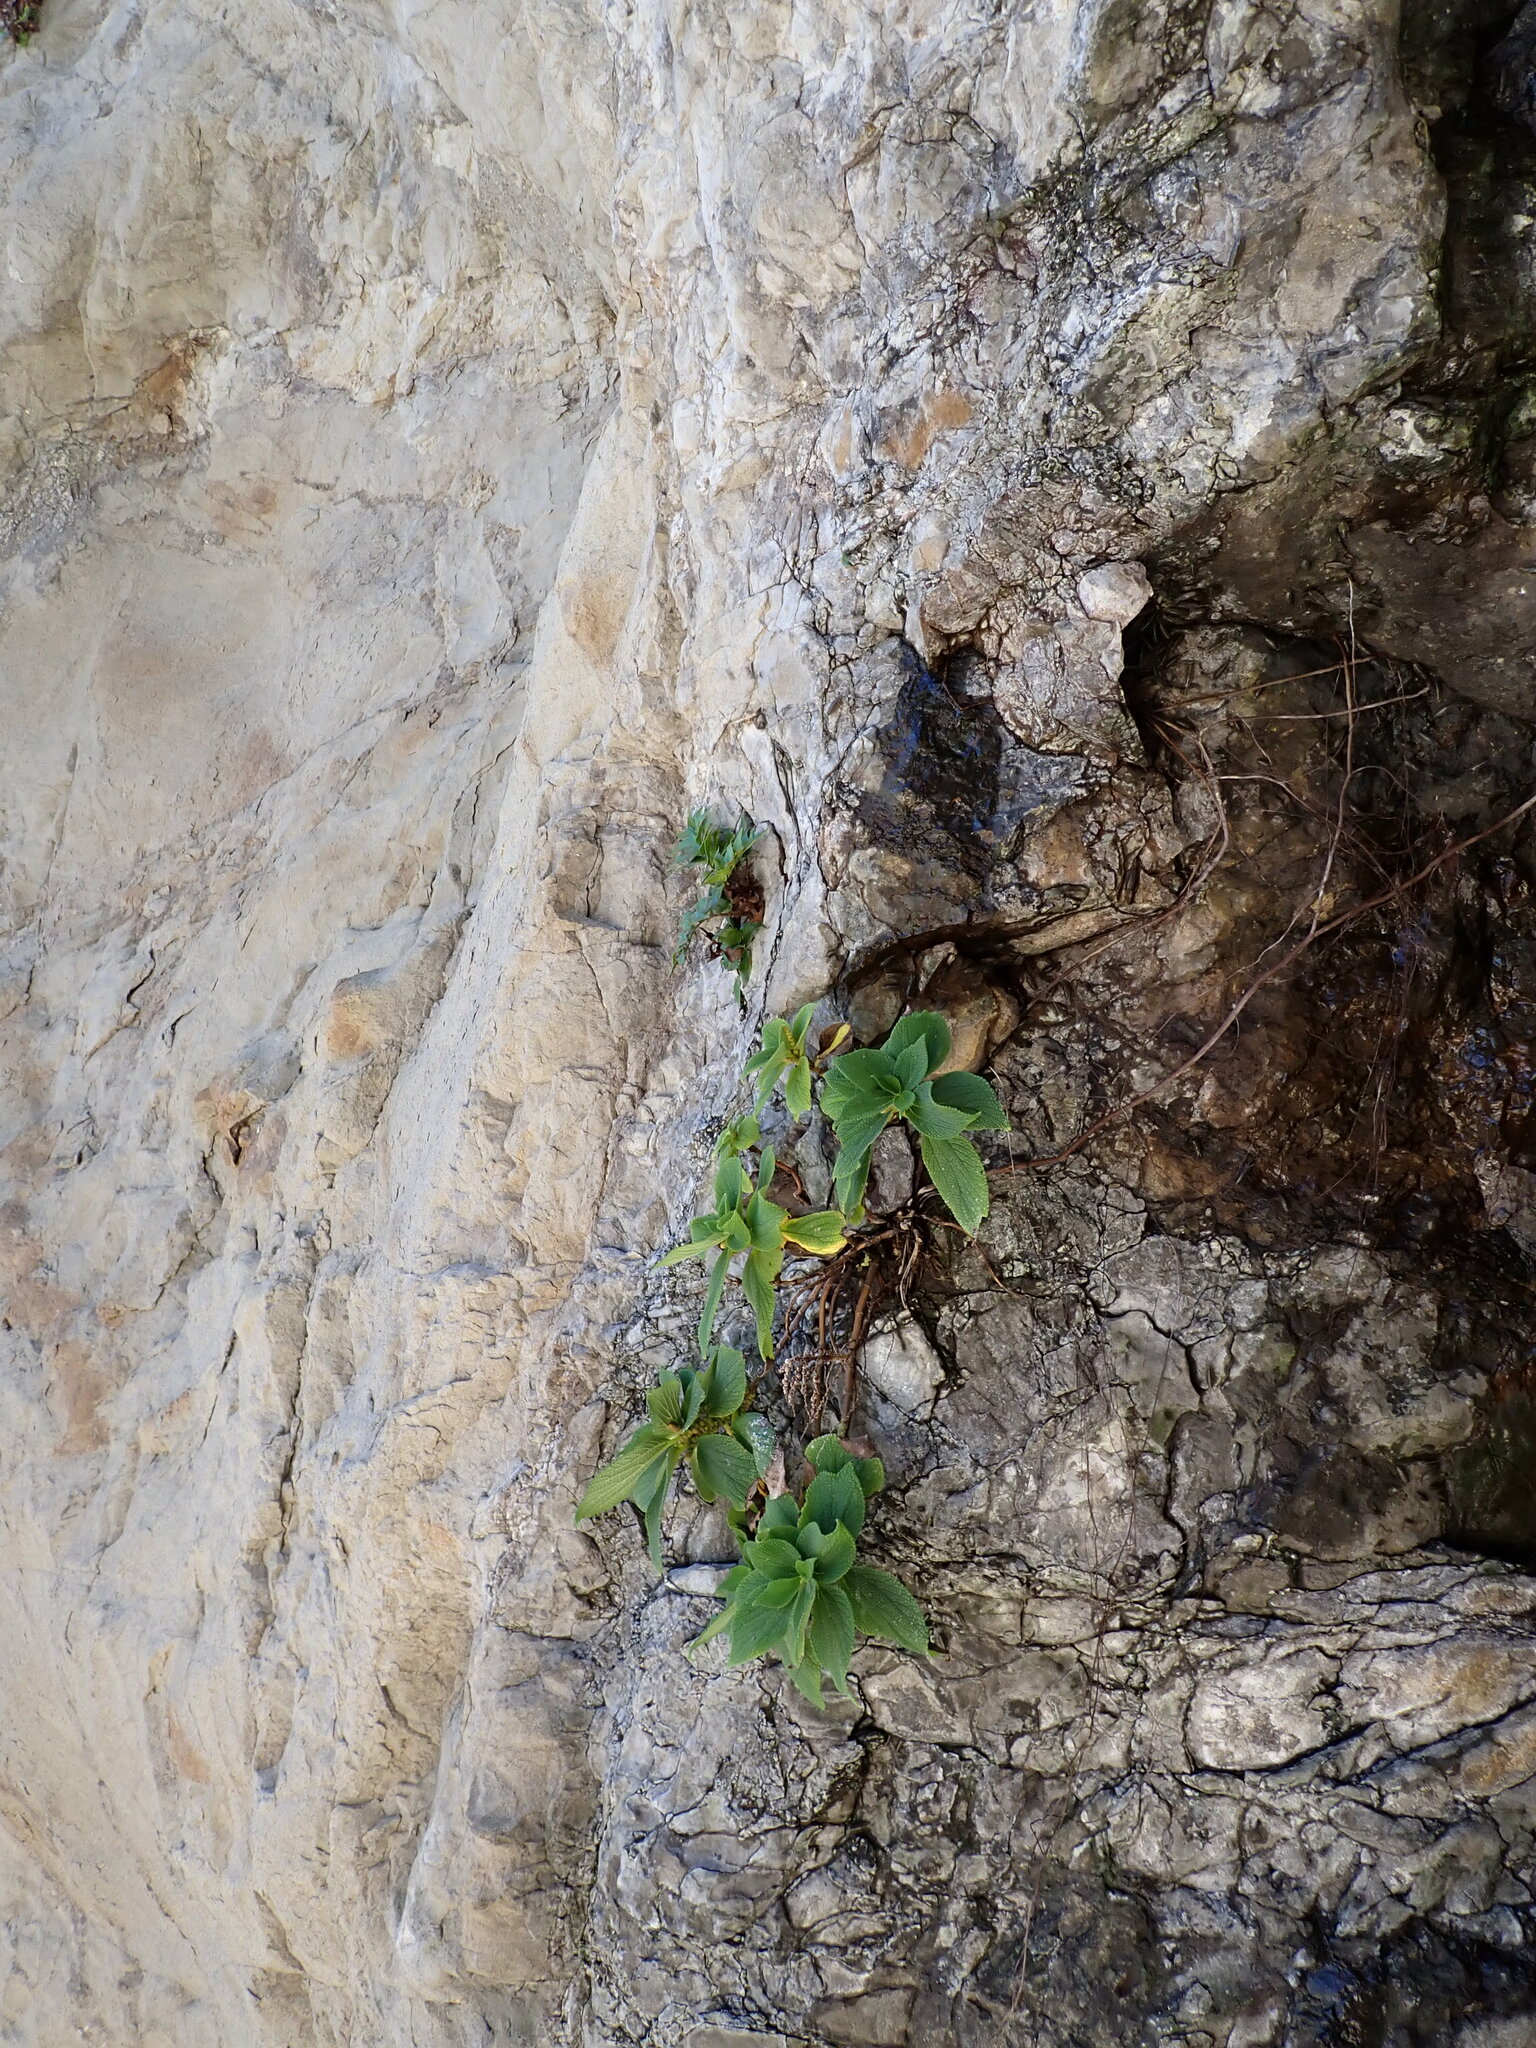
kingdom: Plantae
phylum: Tracheophyta
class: Magnoliopsida
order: Rosales
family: Urticaceae
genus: Boehmeria
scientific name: Boehmeria splitgerbera
